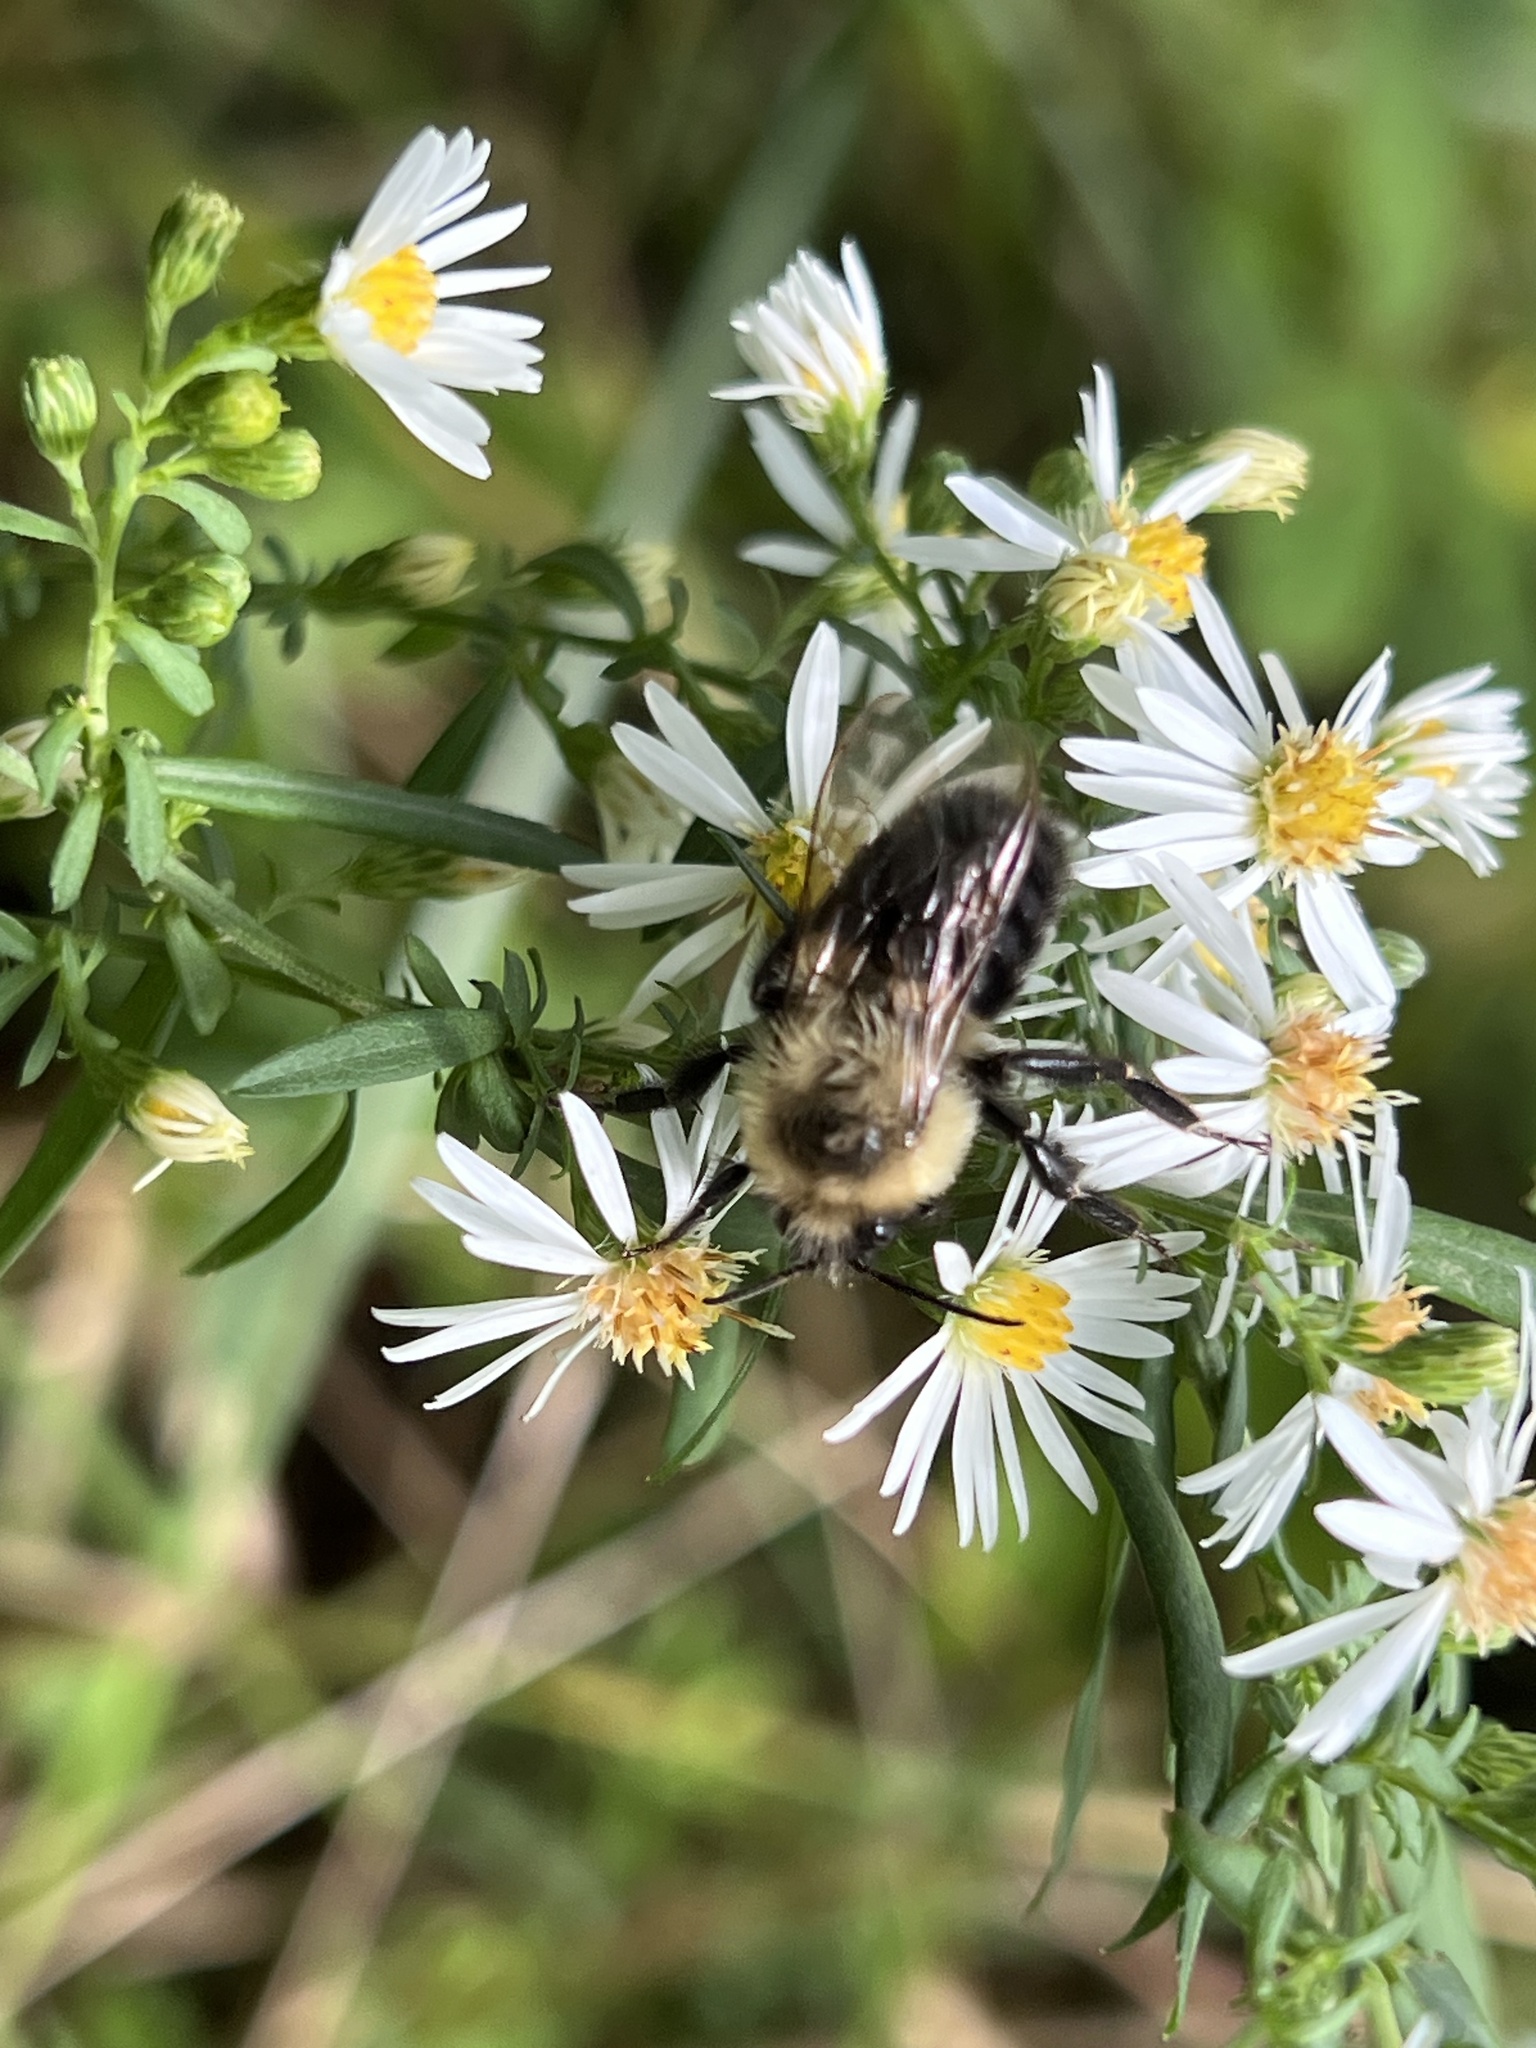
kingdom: Animalia
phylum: Arthropoda
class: Insecta
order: Hymenoptera
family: Apidae
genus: Bombus
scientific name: Bombus impatiens
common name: Common eastern bumble bee
